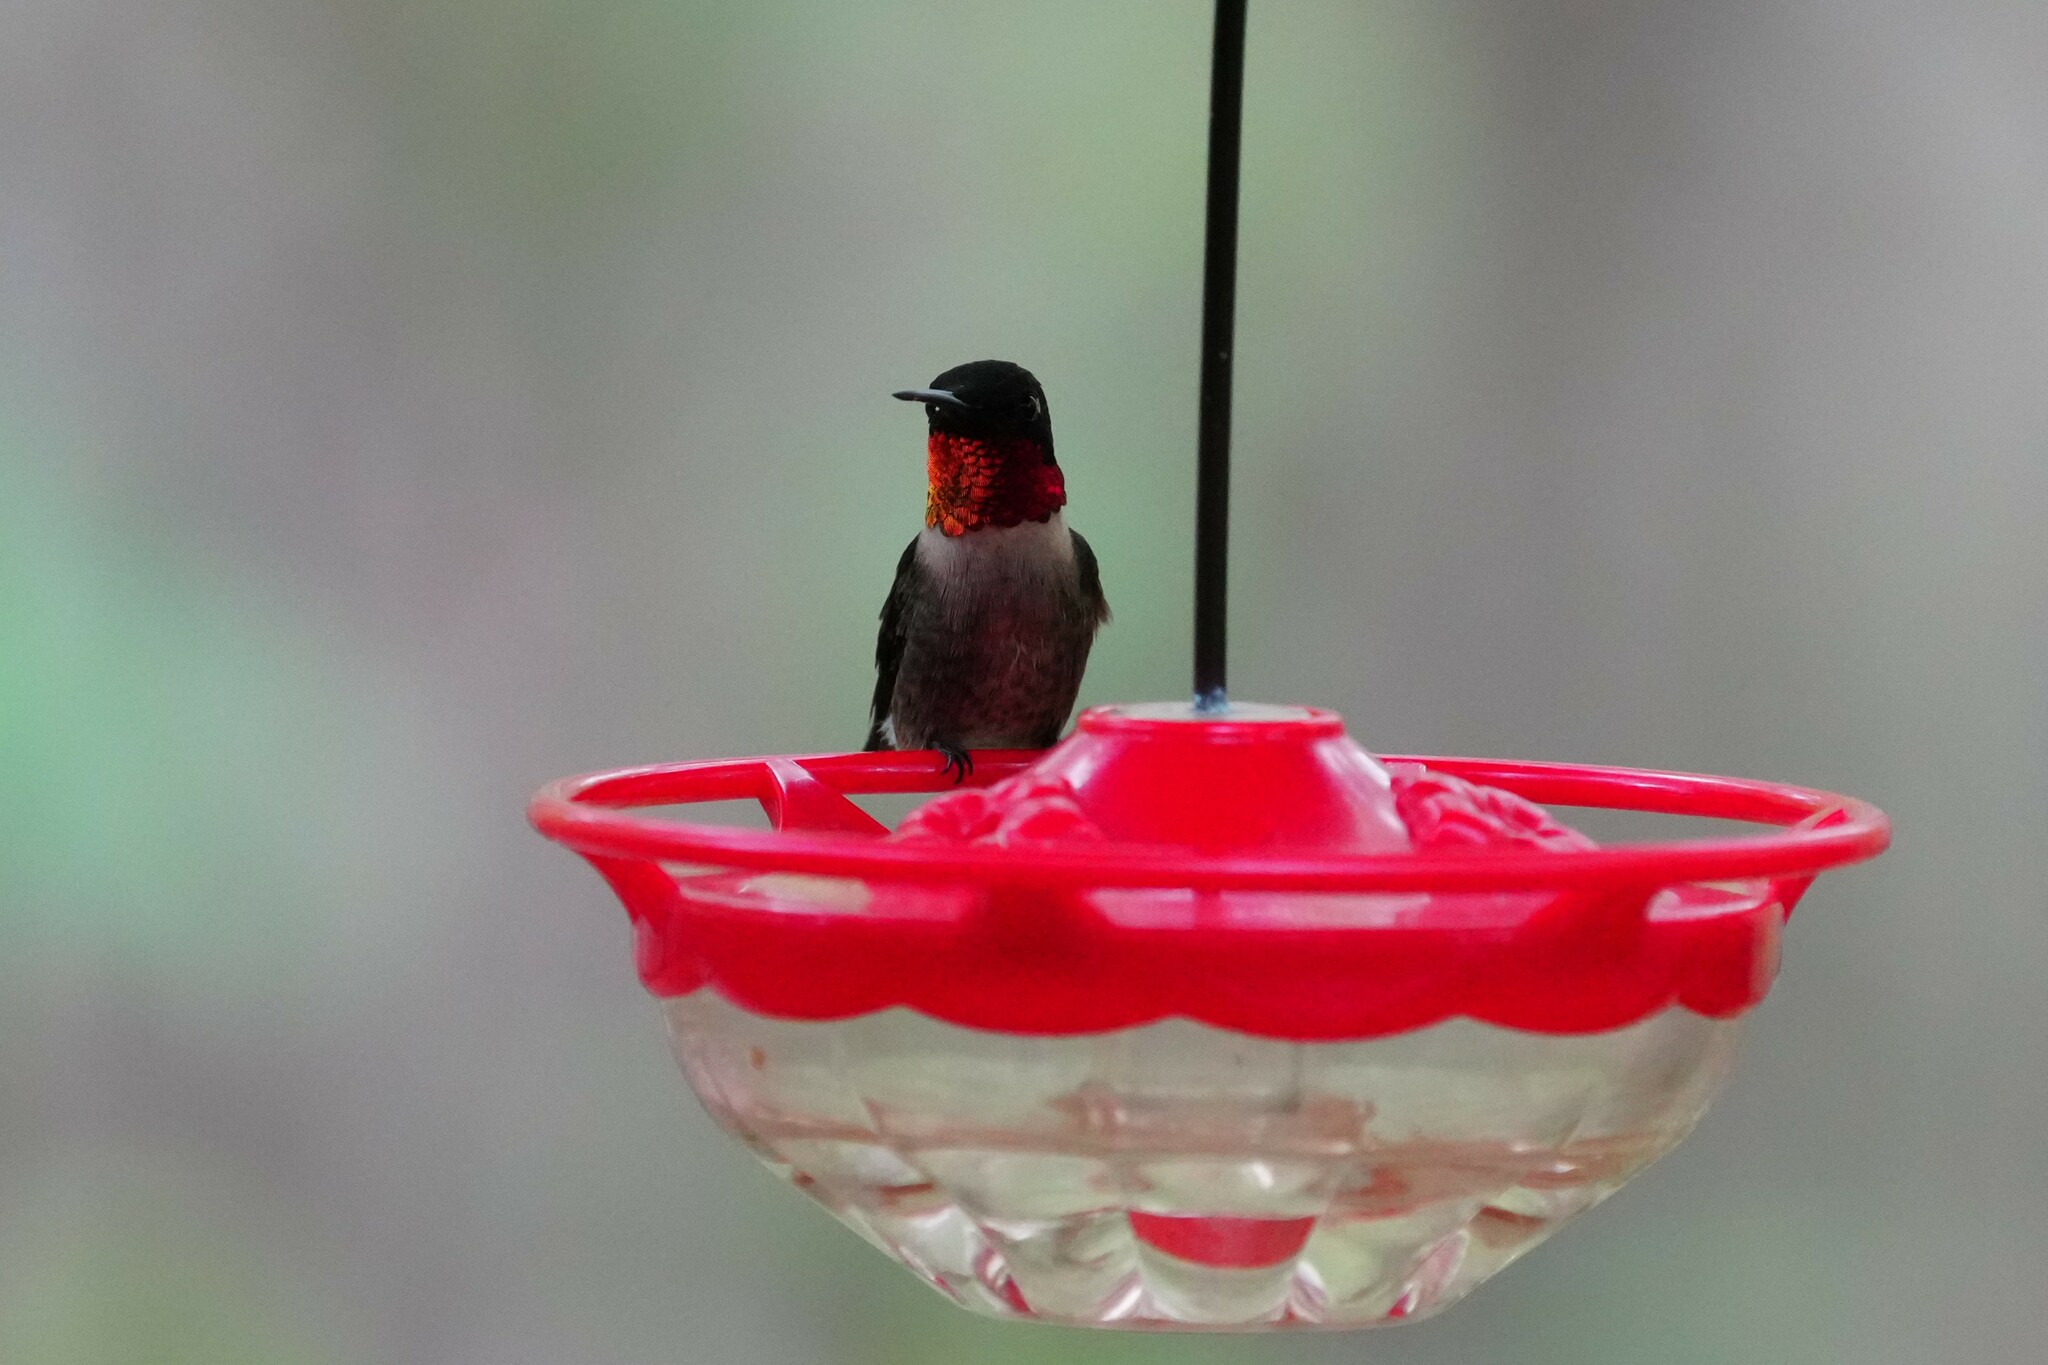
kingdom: Animalia
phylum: Chordata
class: Aves
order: Apodiformes
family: Trochilidae
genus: Archilochus
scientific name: Archilochus colubris
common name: Ruby-throated hummingbird
